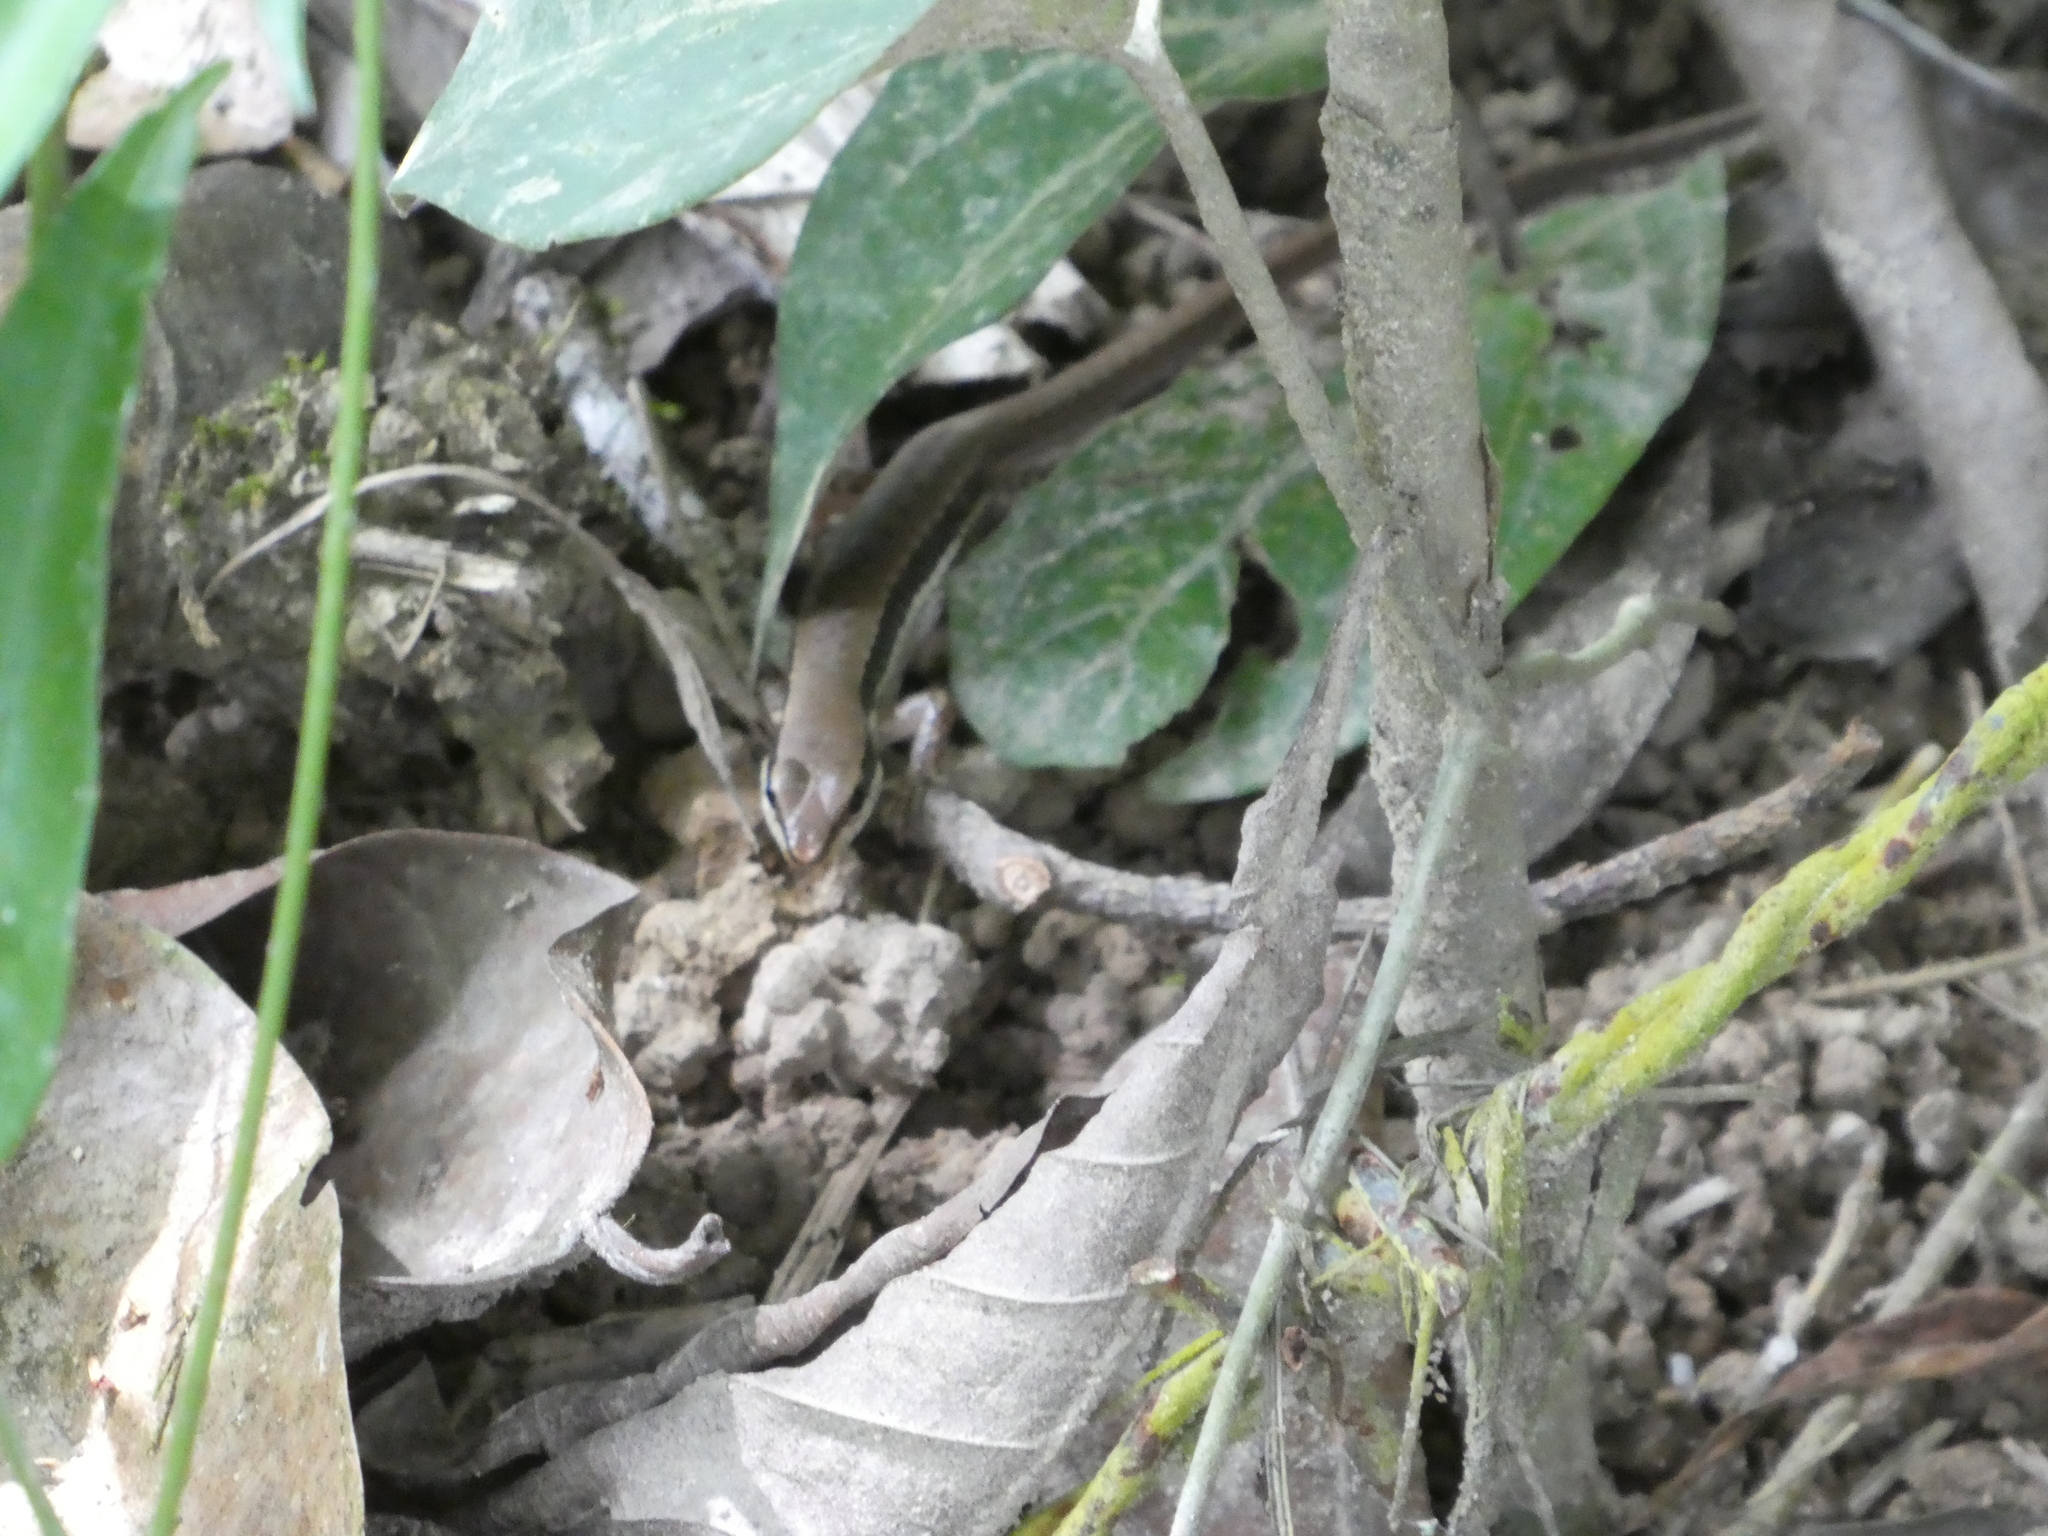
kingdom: Animalia
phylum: Chordata
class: Squamata
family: Scincidae
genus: Sphenomorphus
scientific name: Sphenomorphus maculatus
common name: Maculated forest skink
